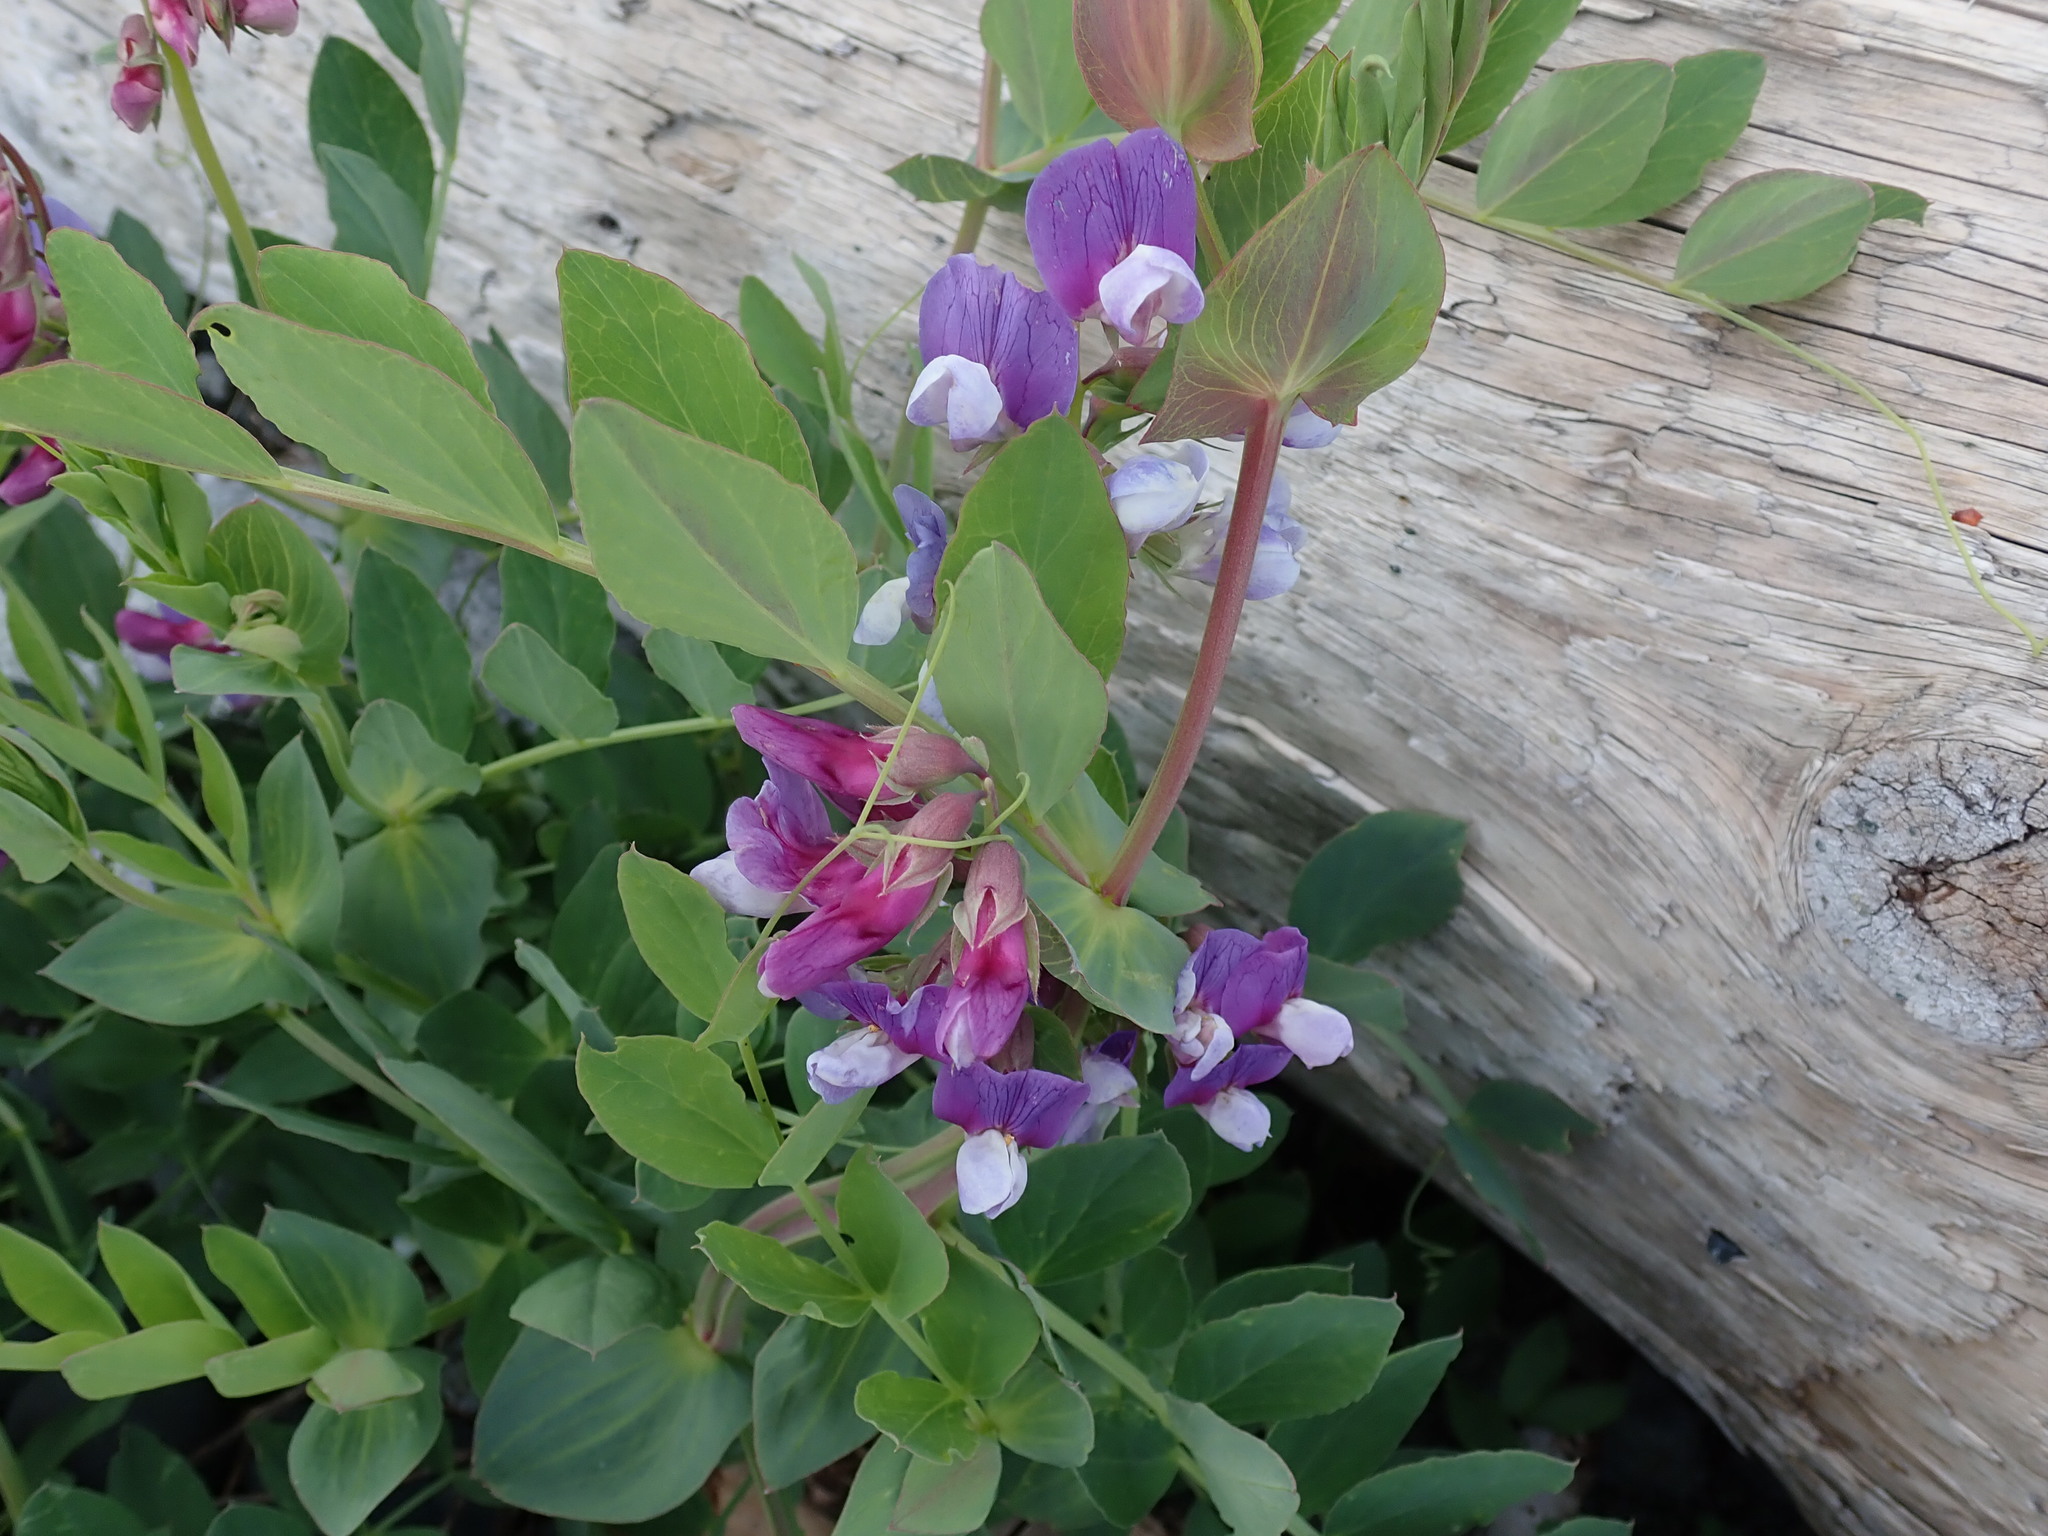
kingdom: Plantae
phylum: Tracheophyta
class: Magnoliopsida
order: Fabales
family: Fabaceae
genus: Lathyrus
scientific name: Lathyrus japonicus
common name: Sea pea
